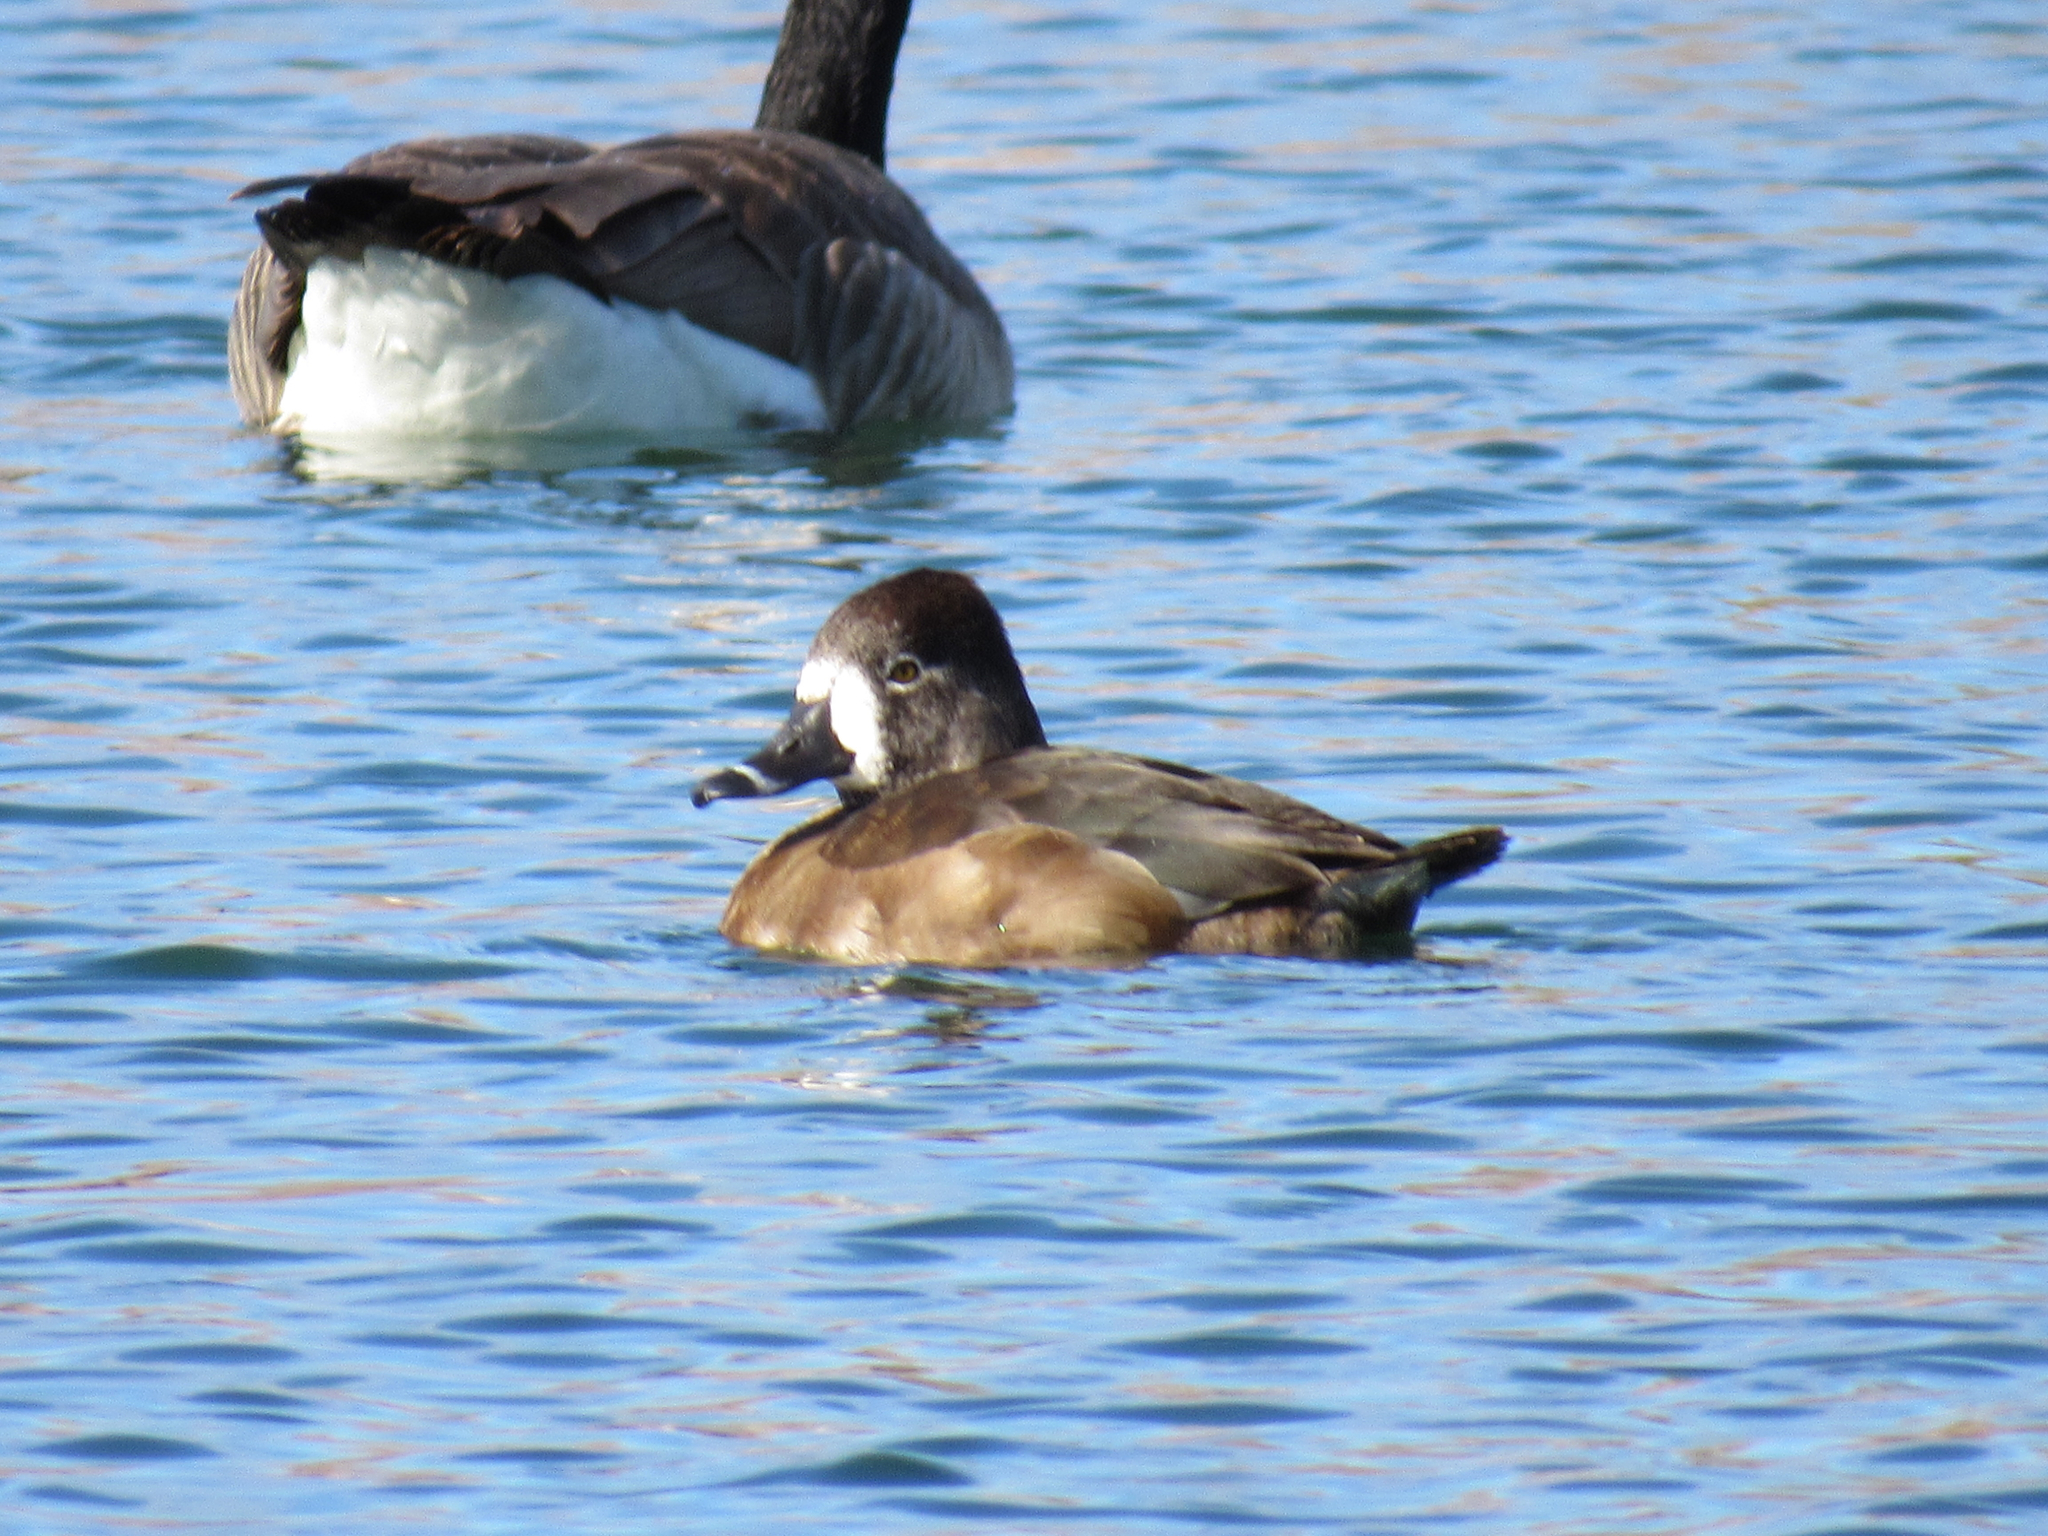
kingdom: Animalia
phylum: Chordata
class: Aves
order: Anseriformes
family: Anatidae
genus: Aythya
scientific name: Aythya collaris
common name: Ring-necked duck
